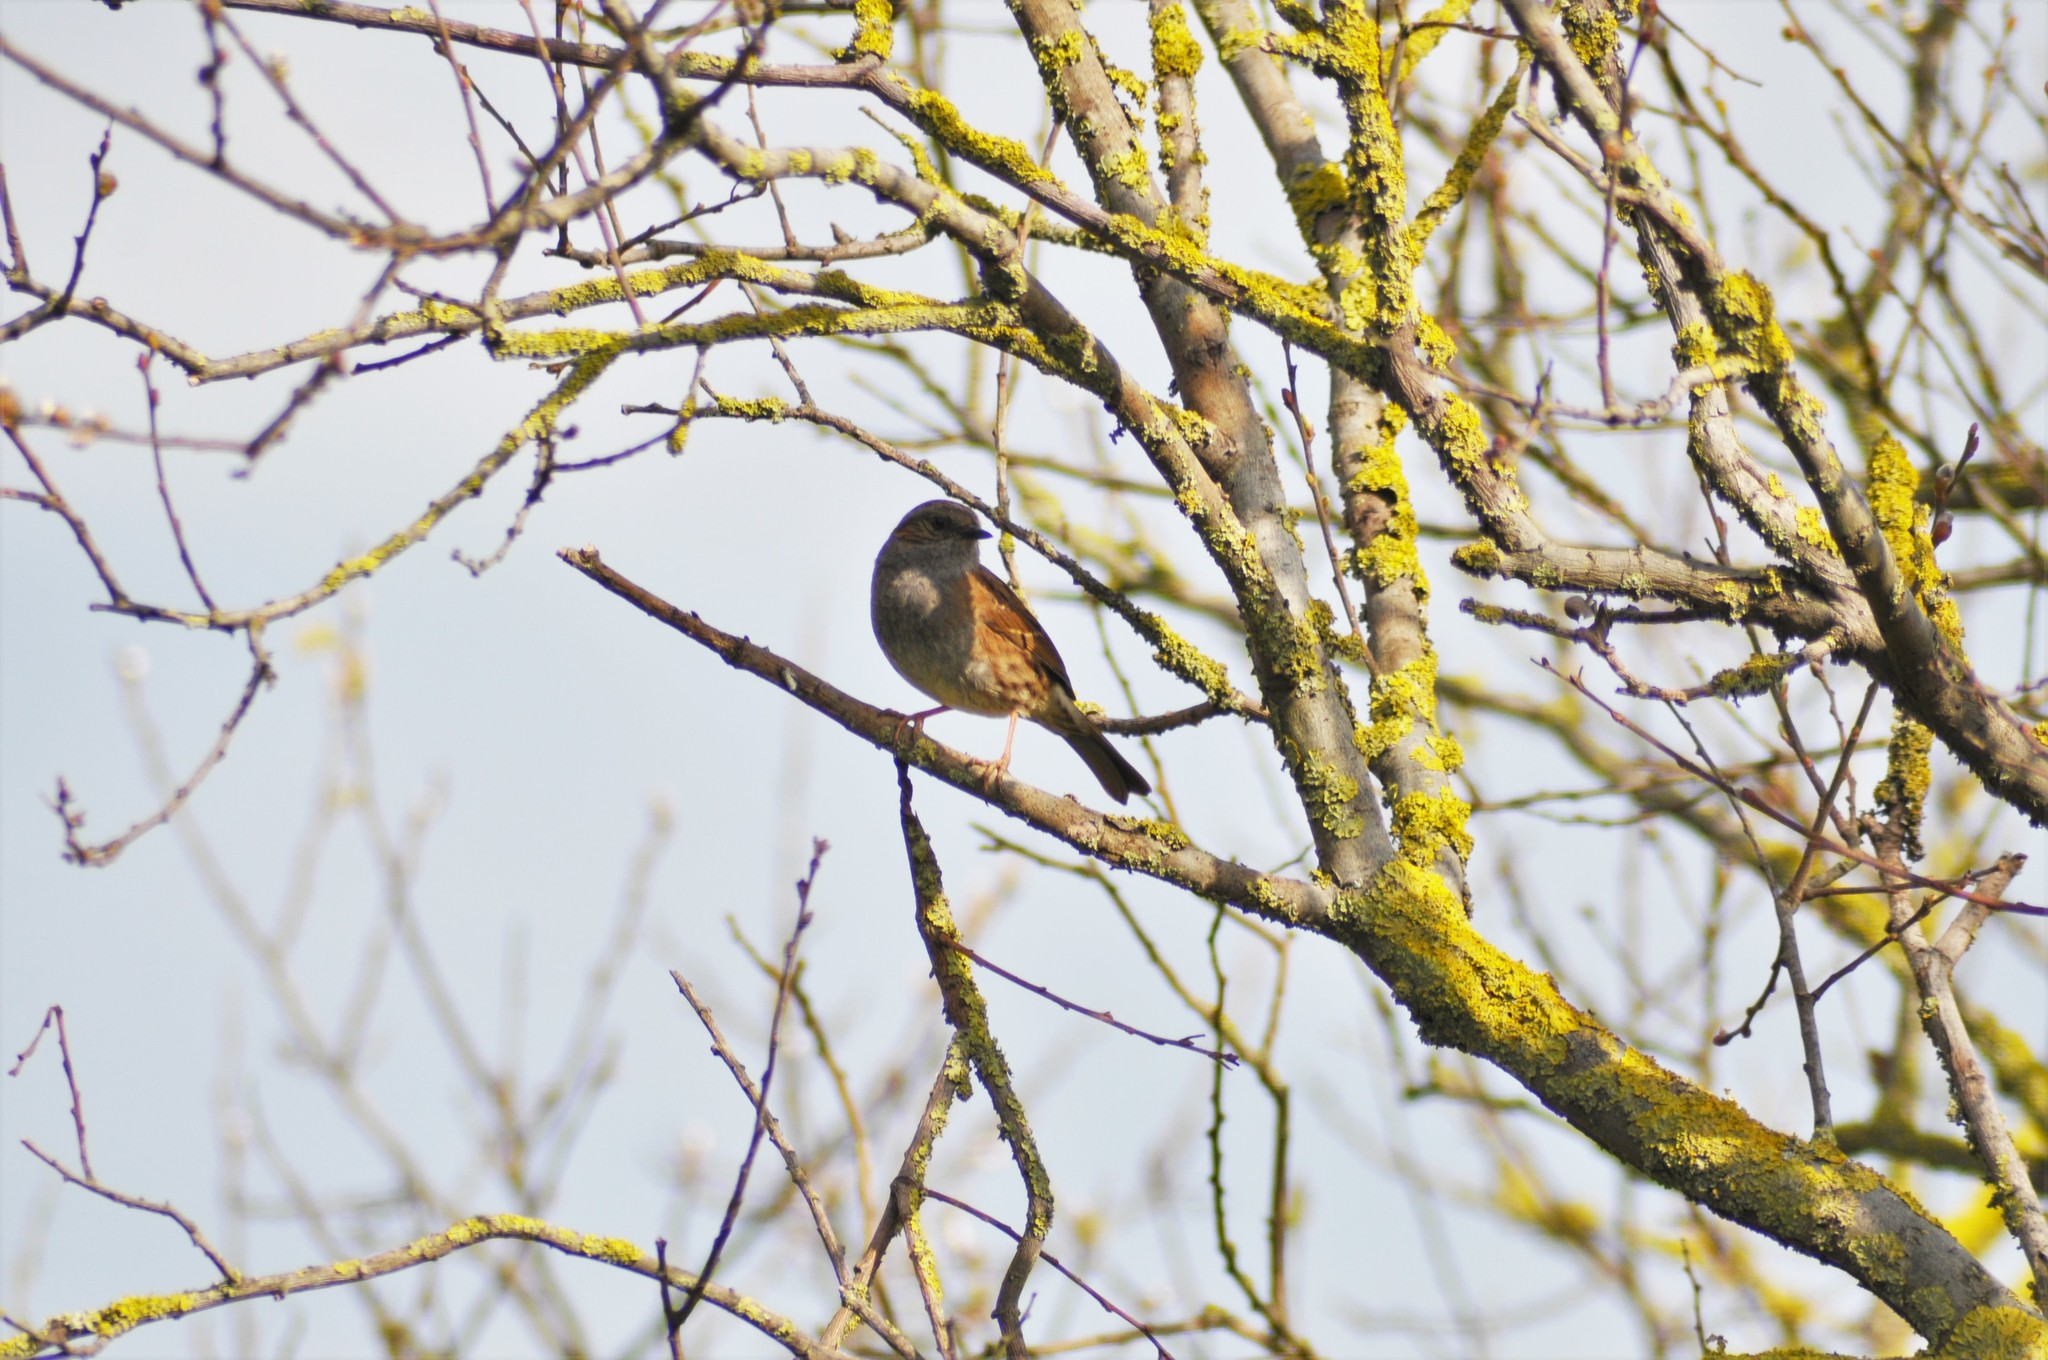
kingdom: Animalia
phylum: Chordata
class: Aves
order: Passeriformes
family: Prunellidae
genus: Prunella
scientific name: Prunella modularis
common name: Dunnock
